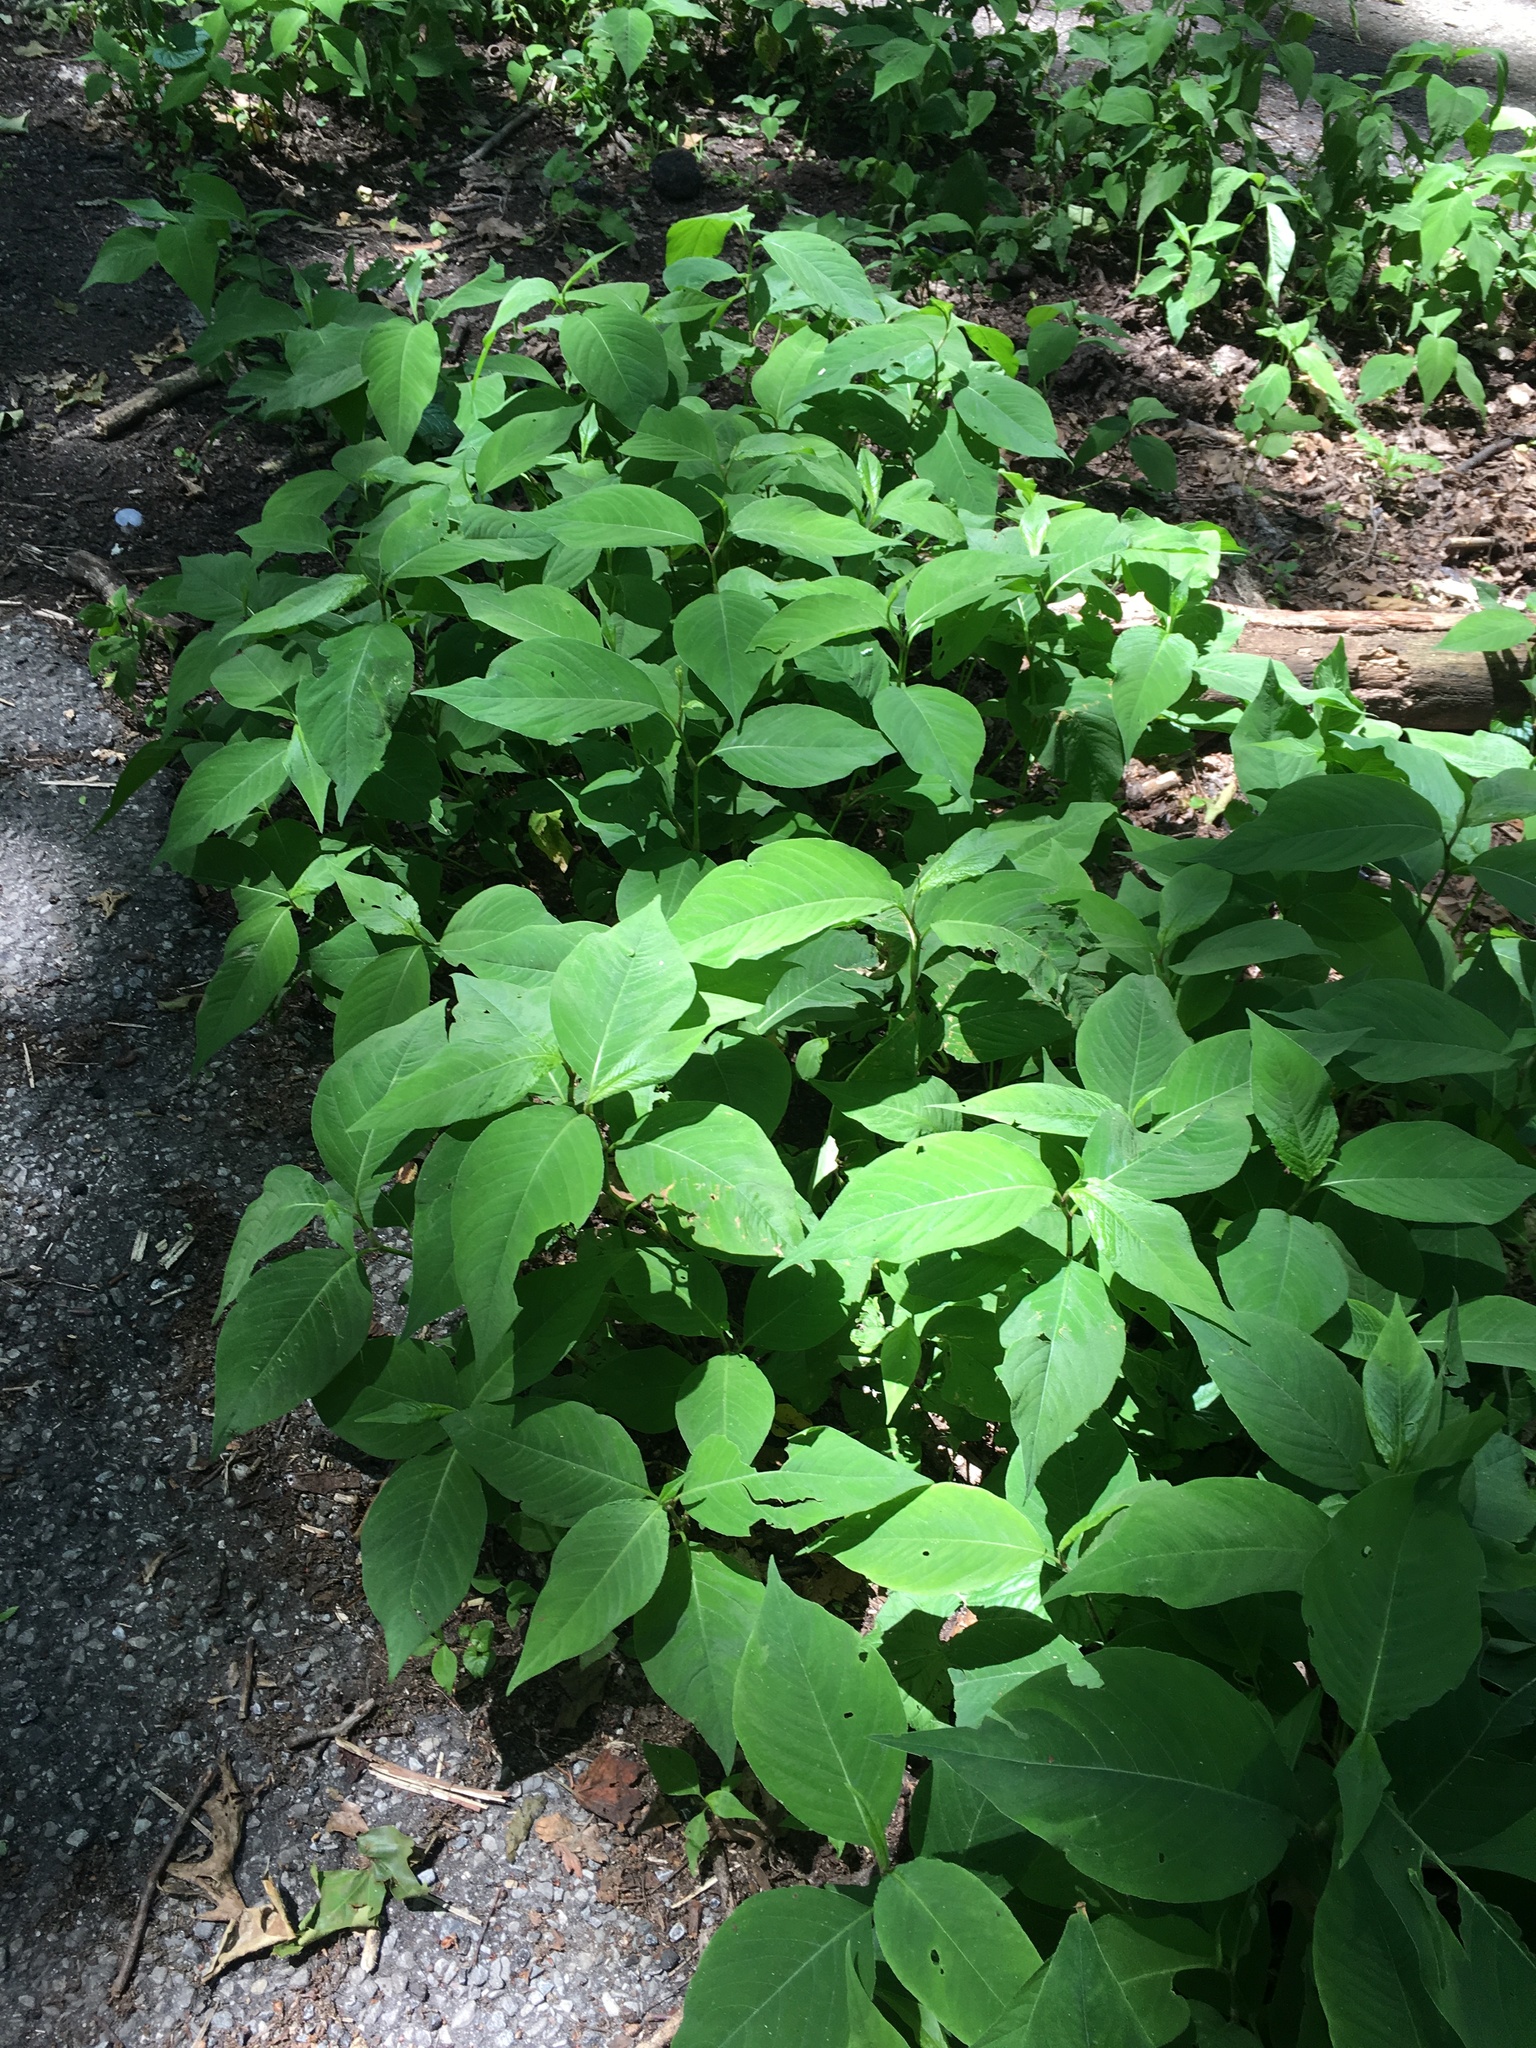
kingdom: Plantae
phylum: Tracheophyta
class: Magnoliopsida
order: Caryophyllales
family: Polygonaceae
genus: Persicaria
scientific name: Persicaria virginiana
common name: Jumpseed
